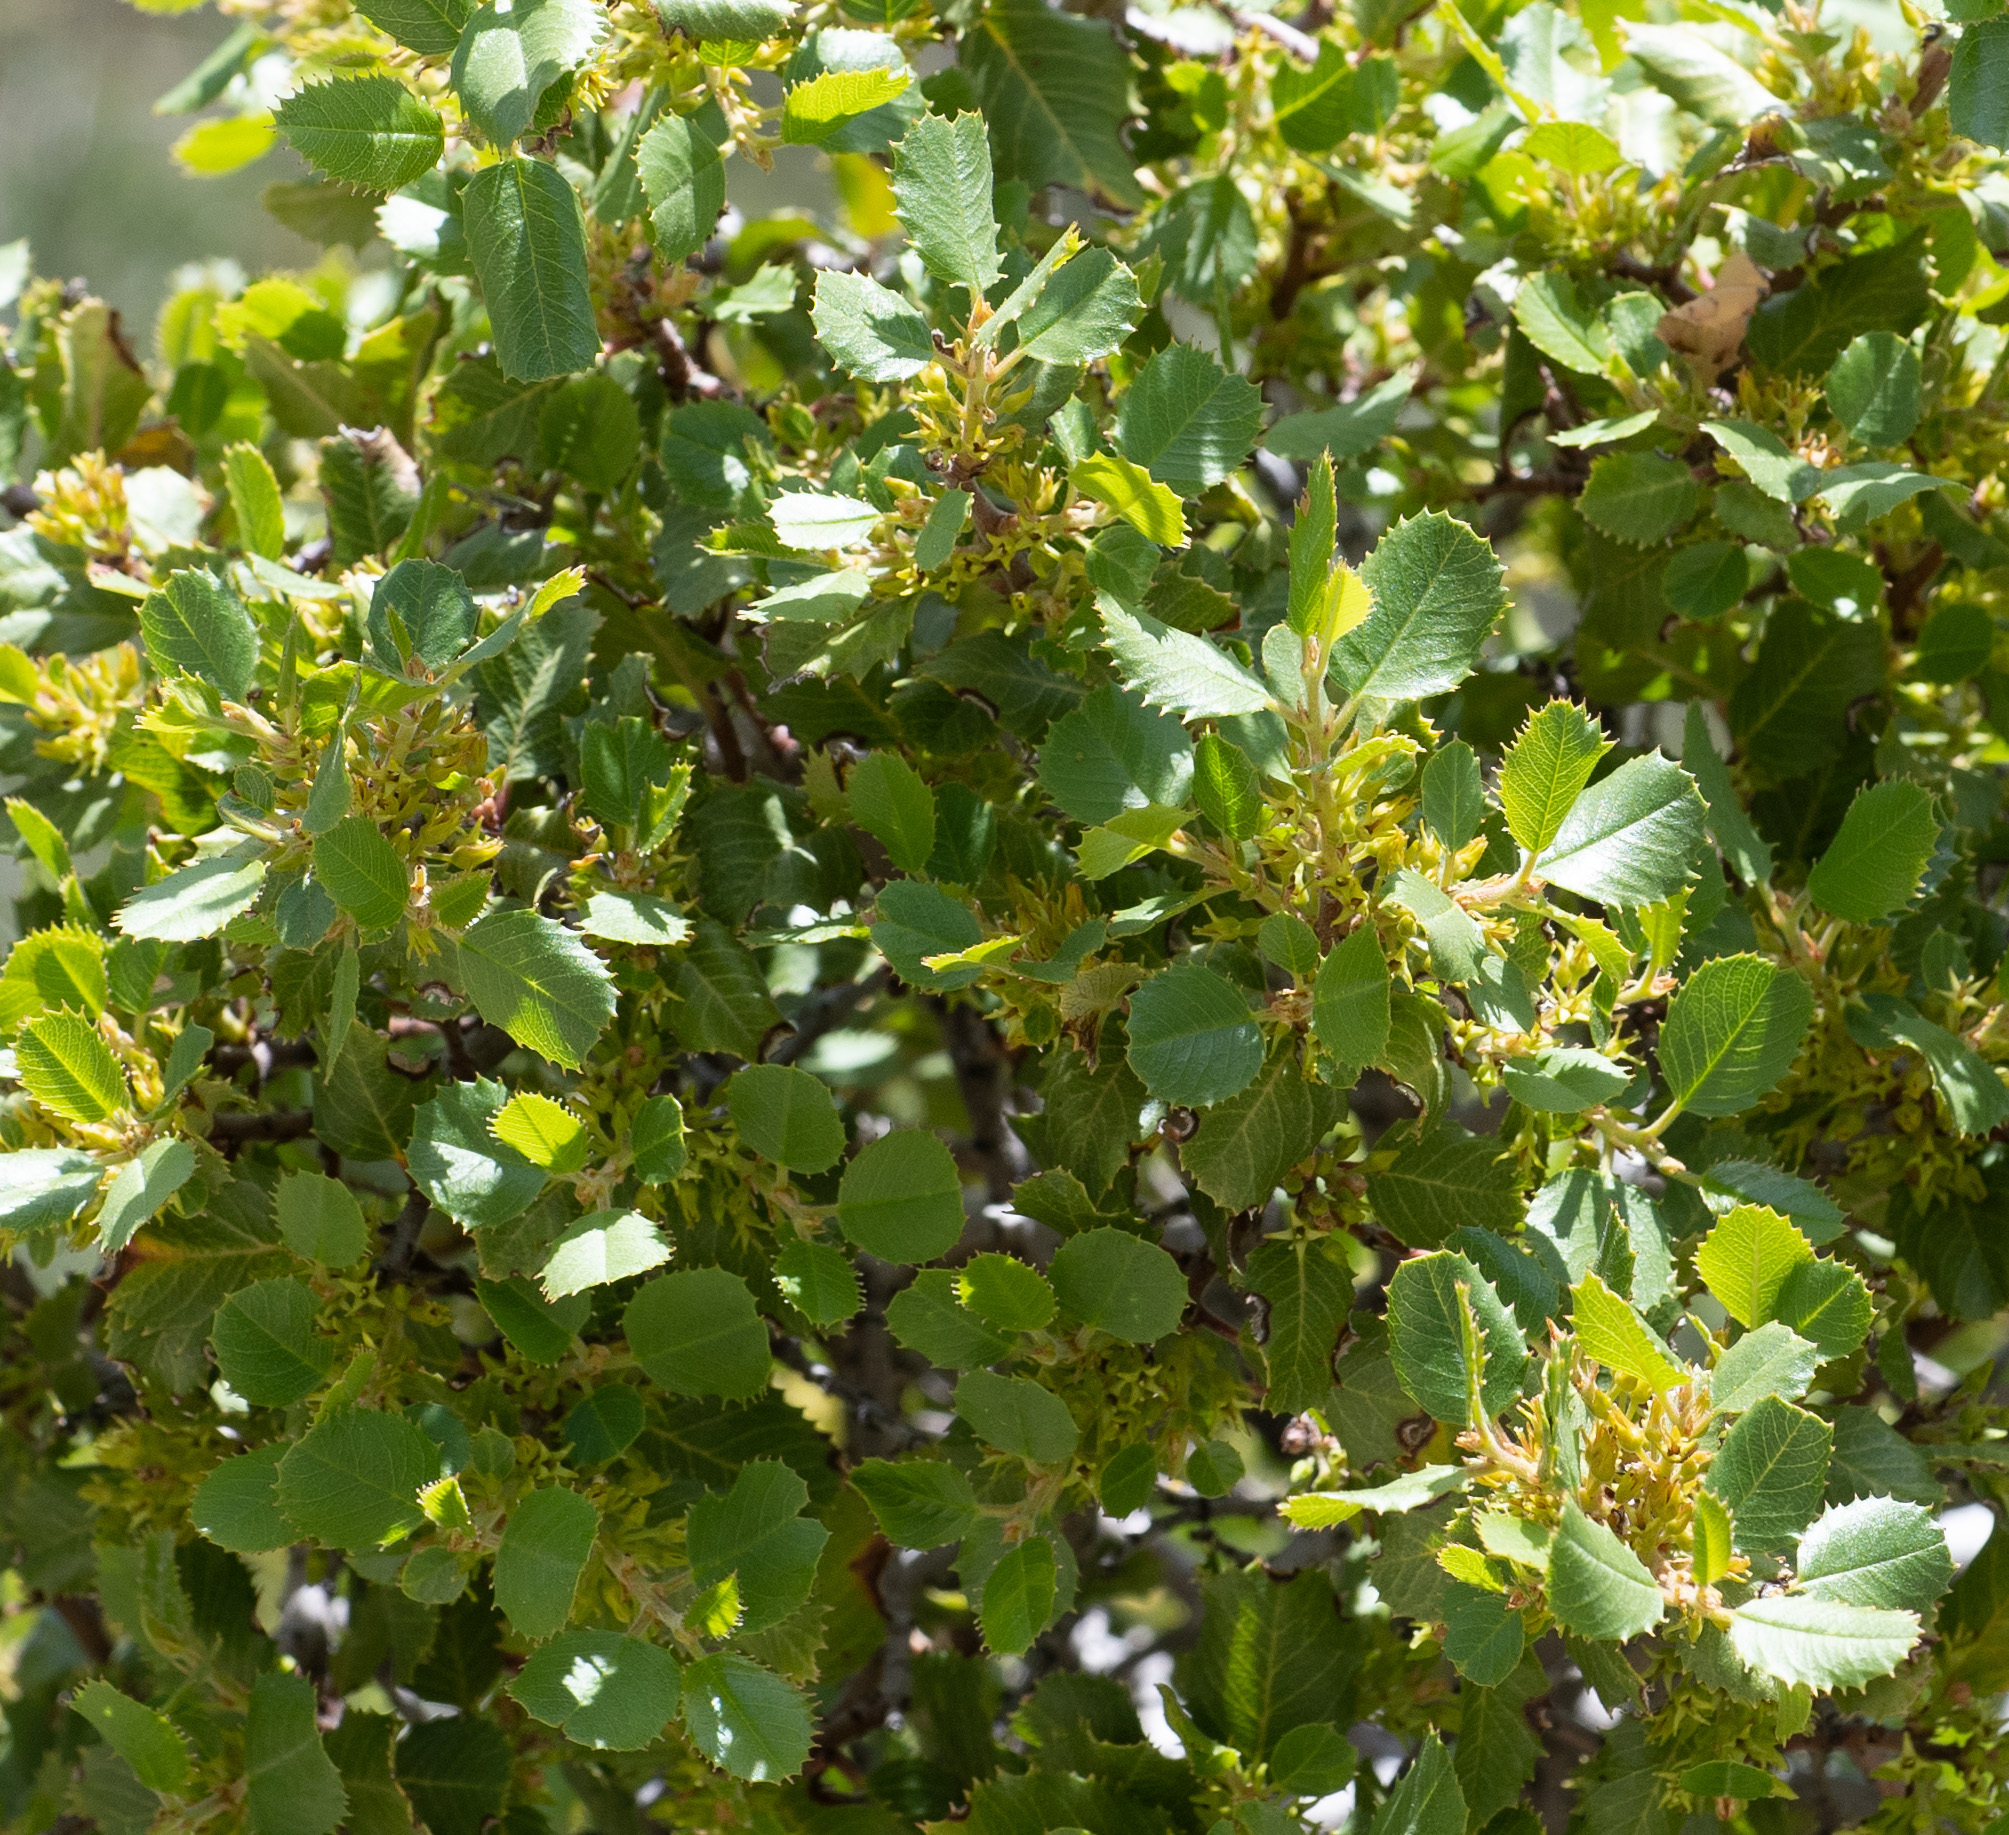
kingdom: Plantae
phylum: Tracheophyta
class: Magnoliopsida
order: Rosales
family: Rhamnaceae
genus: Endotropis
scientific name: Endotropis crocea
